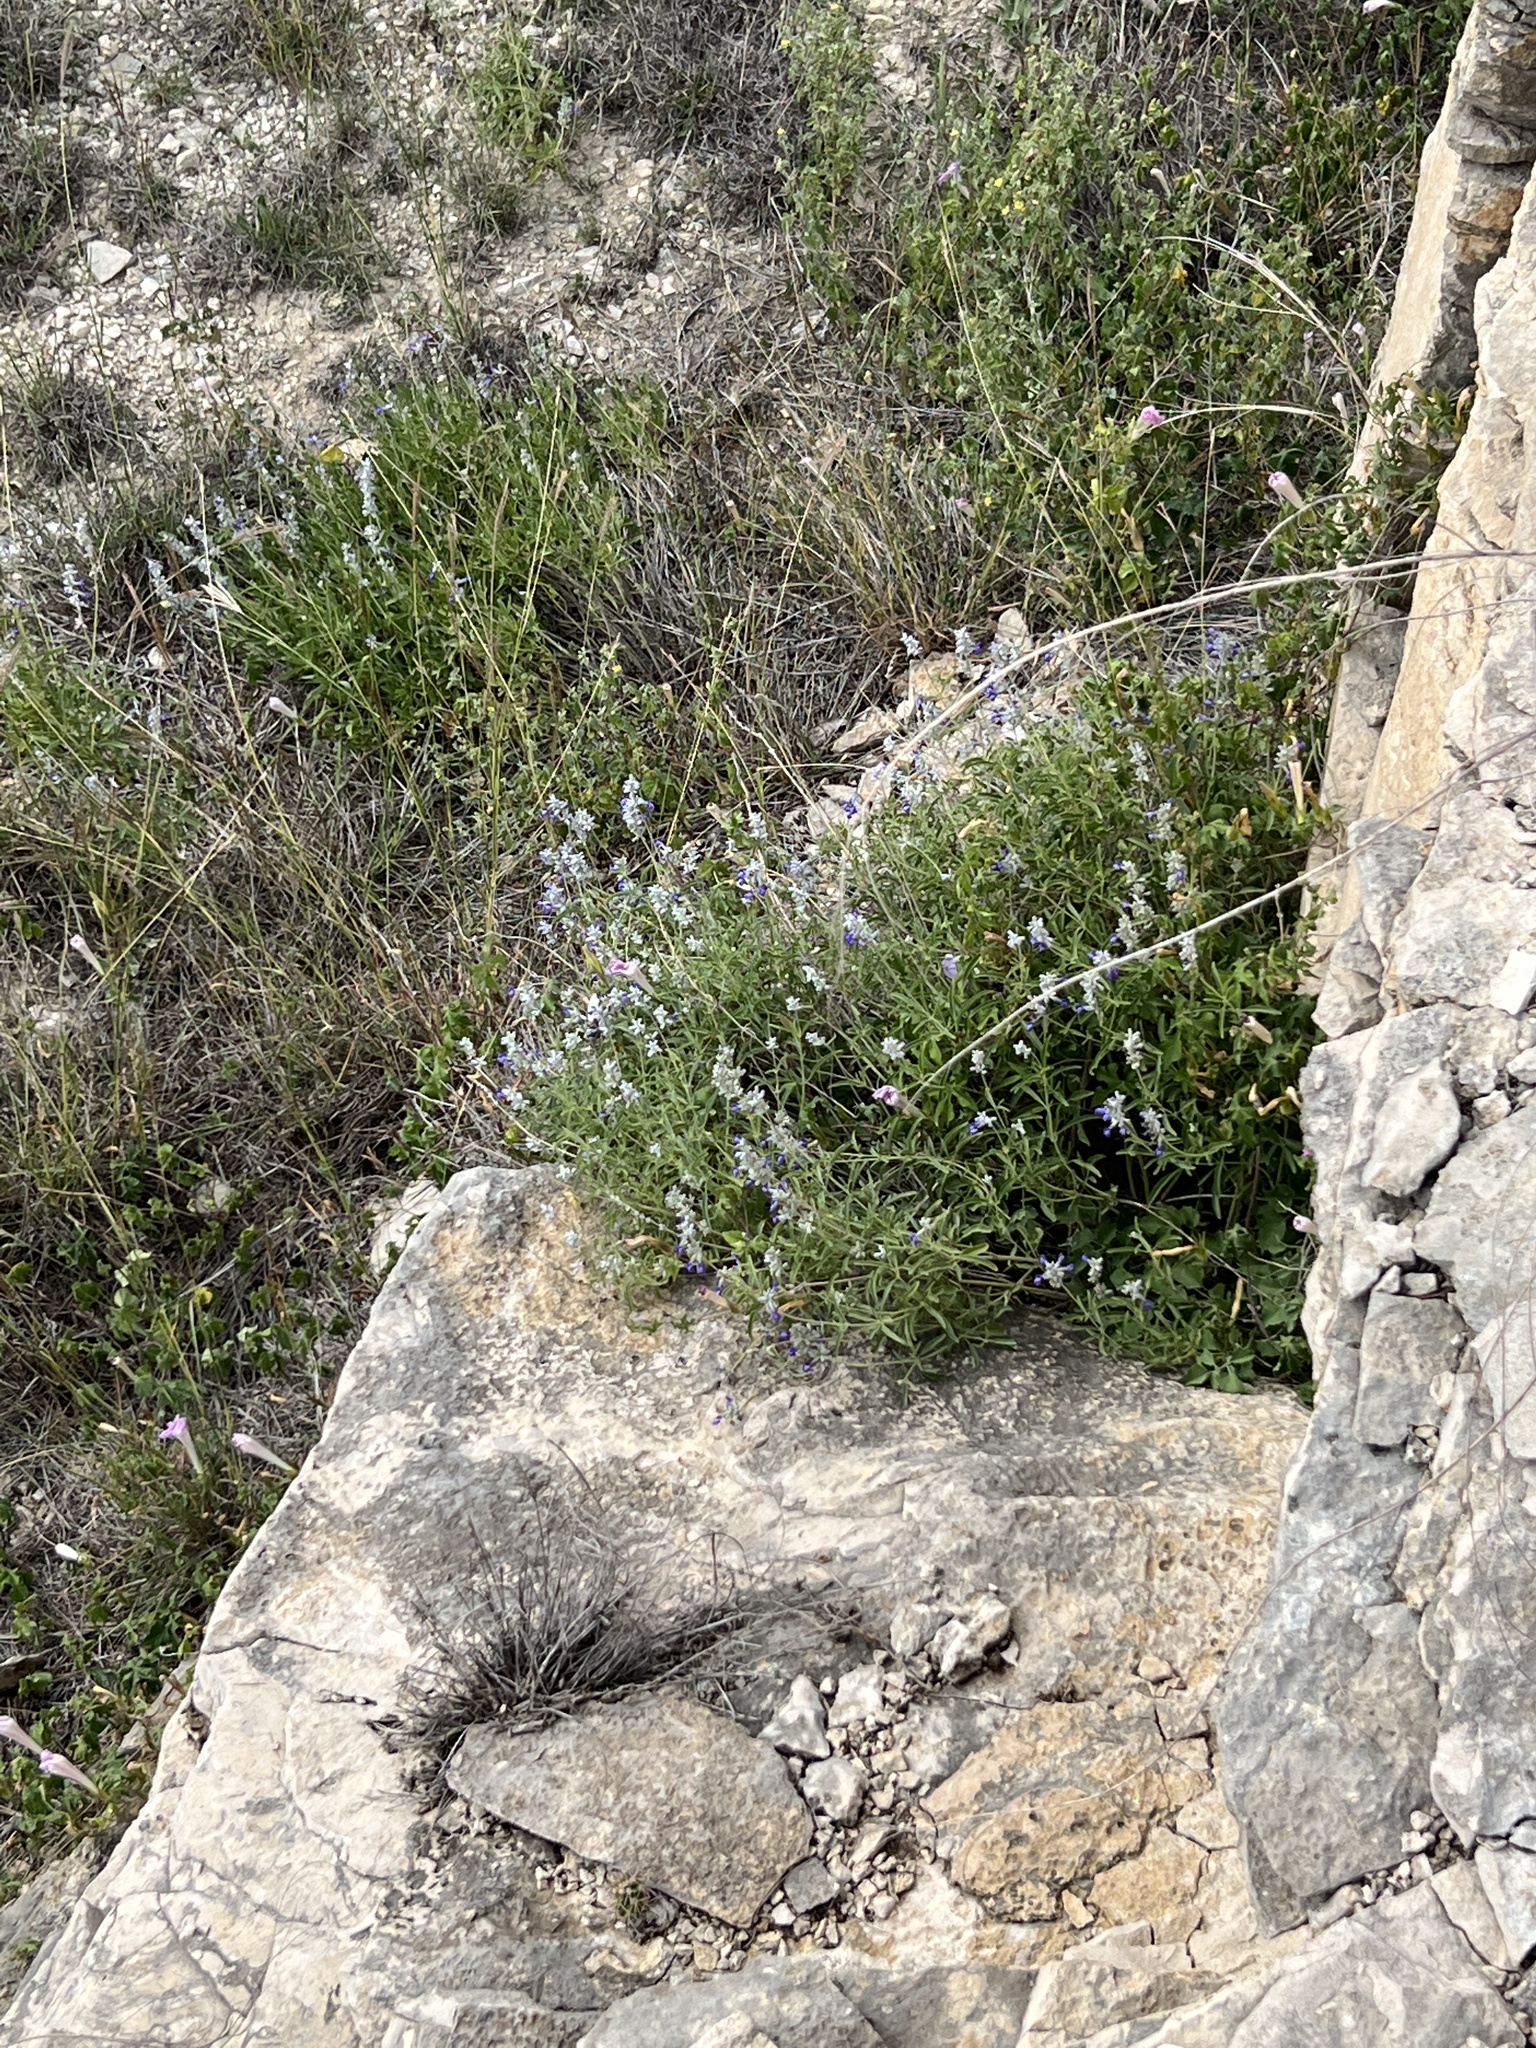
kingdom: Plantae
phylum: Tracheophyta
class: Magnoliopsida
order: Lamiales
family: Lamiaceae
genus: Salvia
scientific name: Salvia farinacea
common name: Mealy sage
